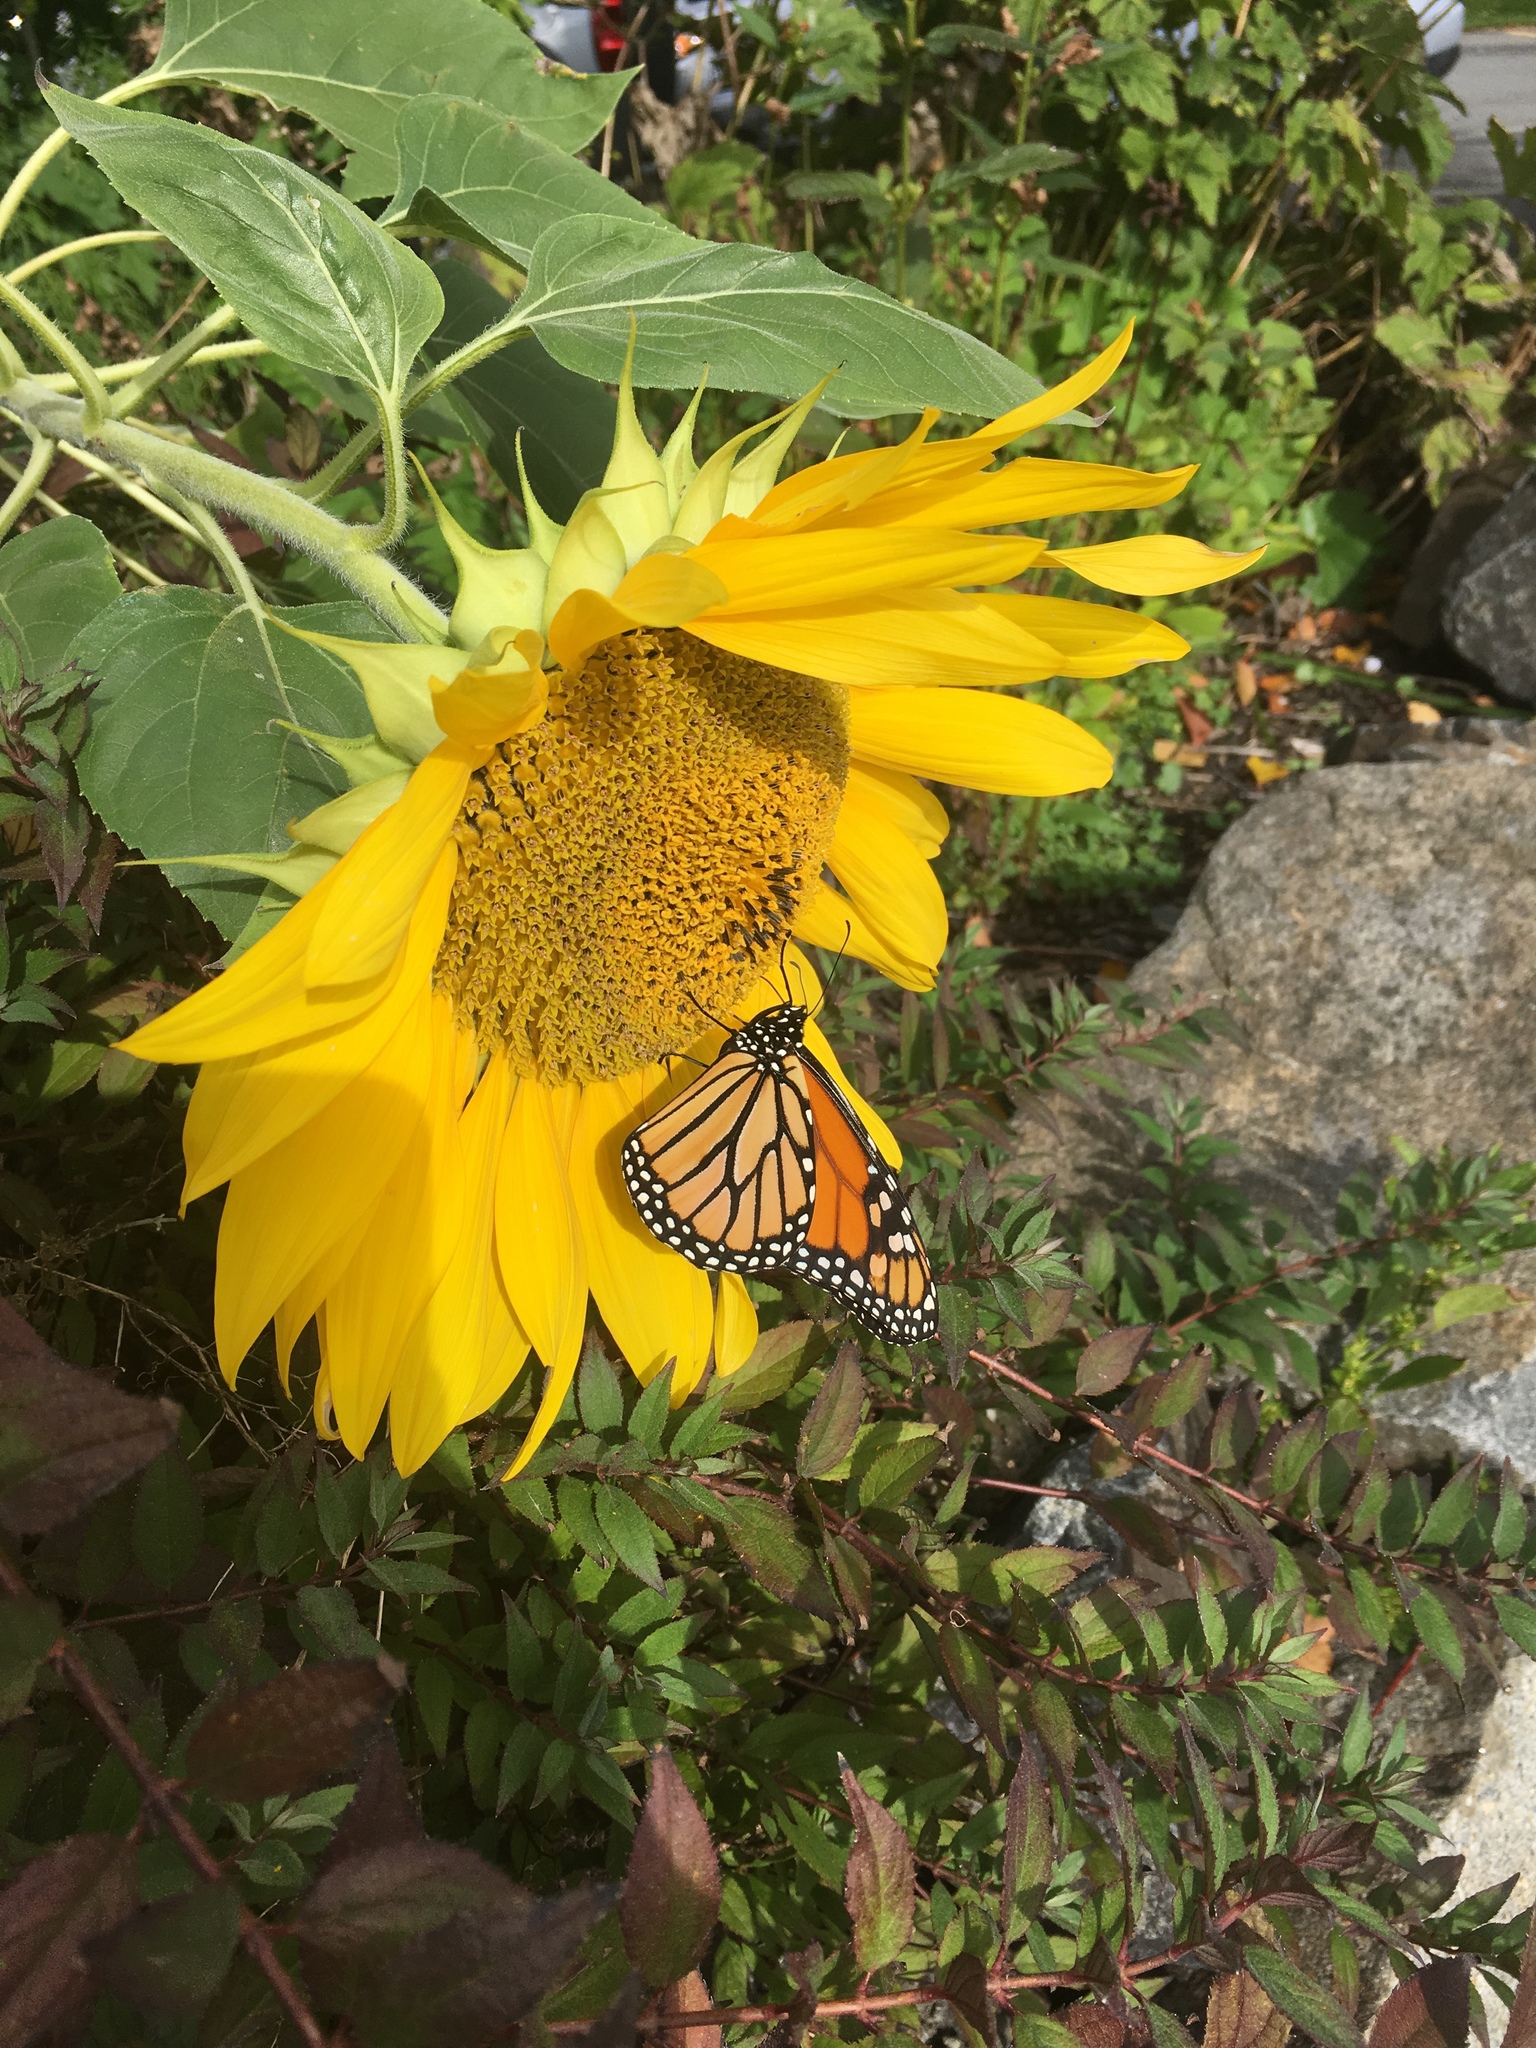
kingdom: Animalia
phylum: Arthropoda
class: Insecta
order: Lepidoptera
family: Nymphalidae
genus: Danaus
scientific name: Danaus plexippus
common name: Monarch
